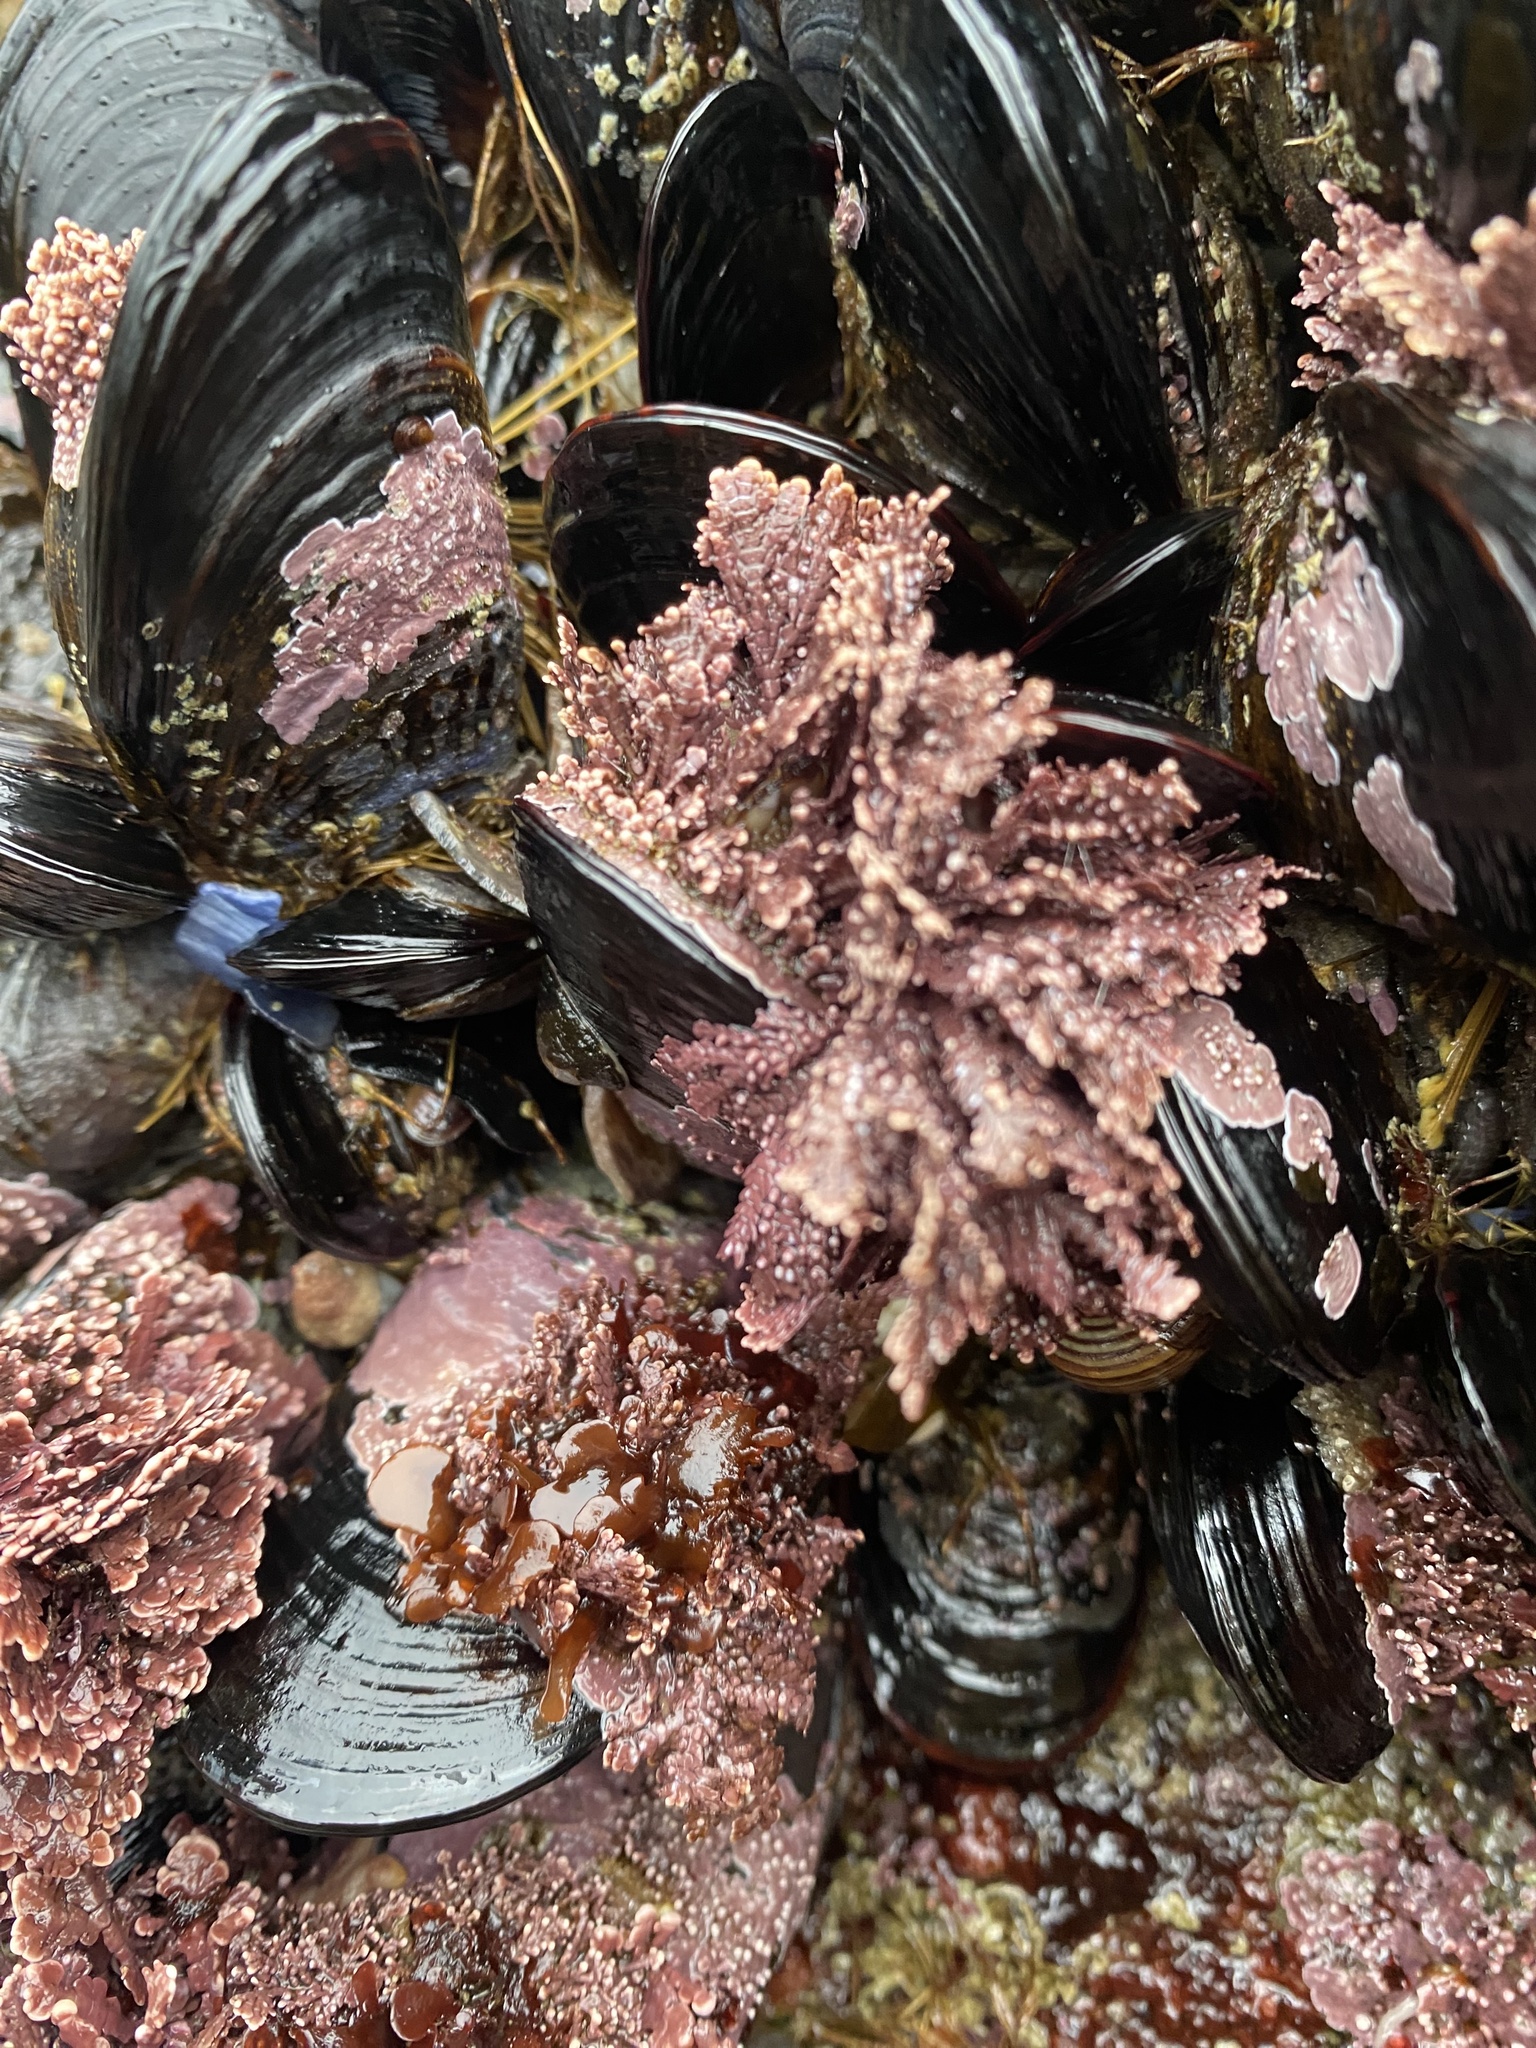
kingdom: Plantae
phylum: Rhodophyta
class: Florideophyceae
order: Corallinales
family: Corallinaceae
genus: Corallina
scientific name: Corallina vancouveriensis
